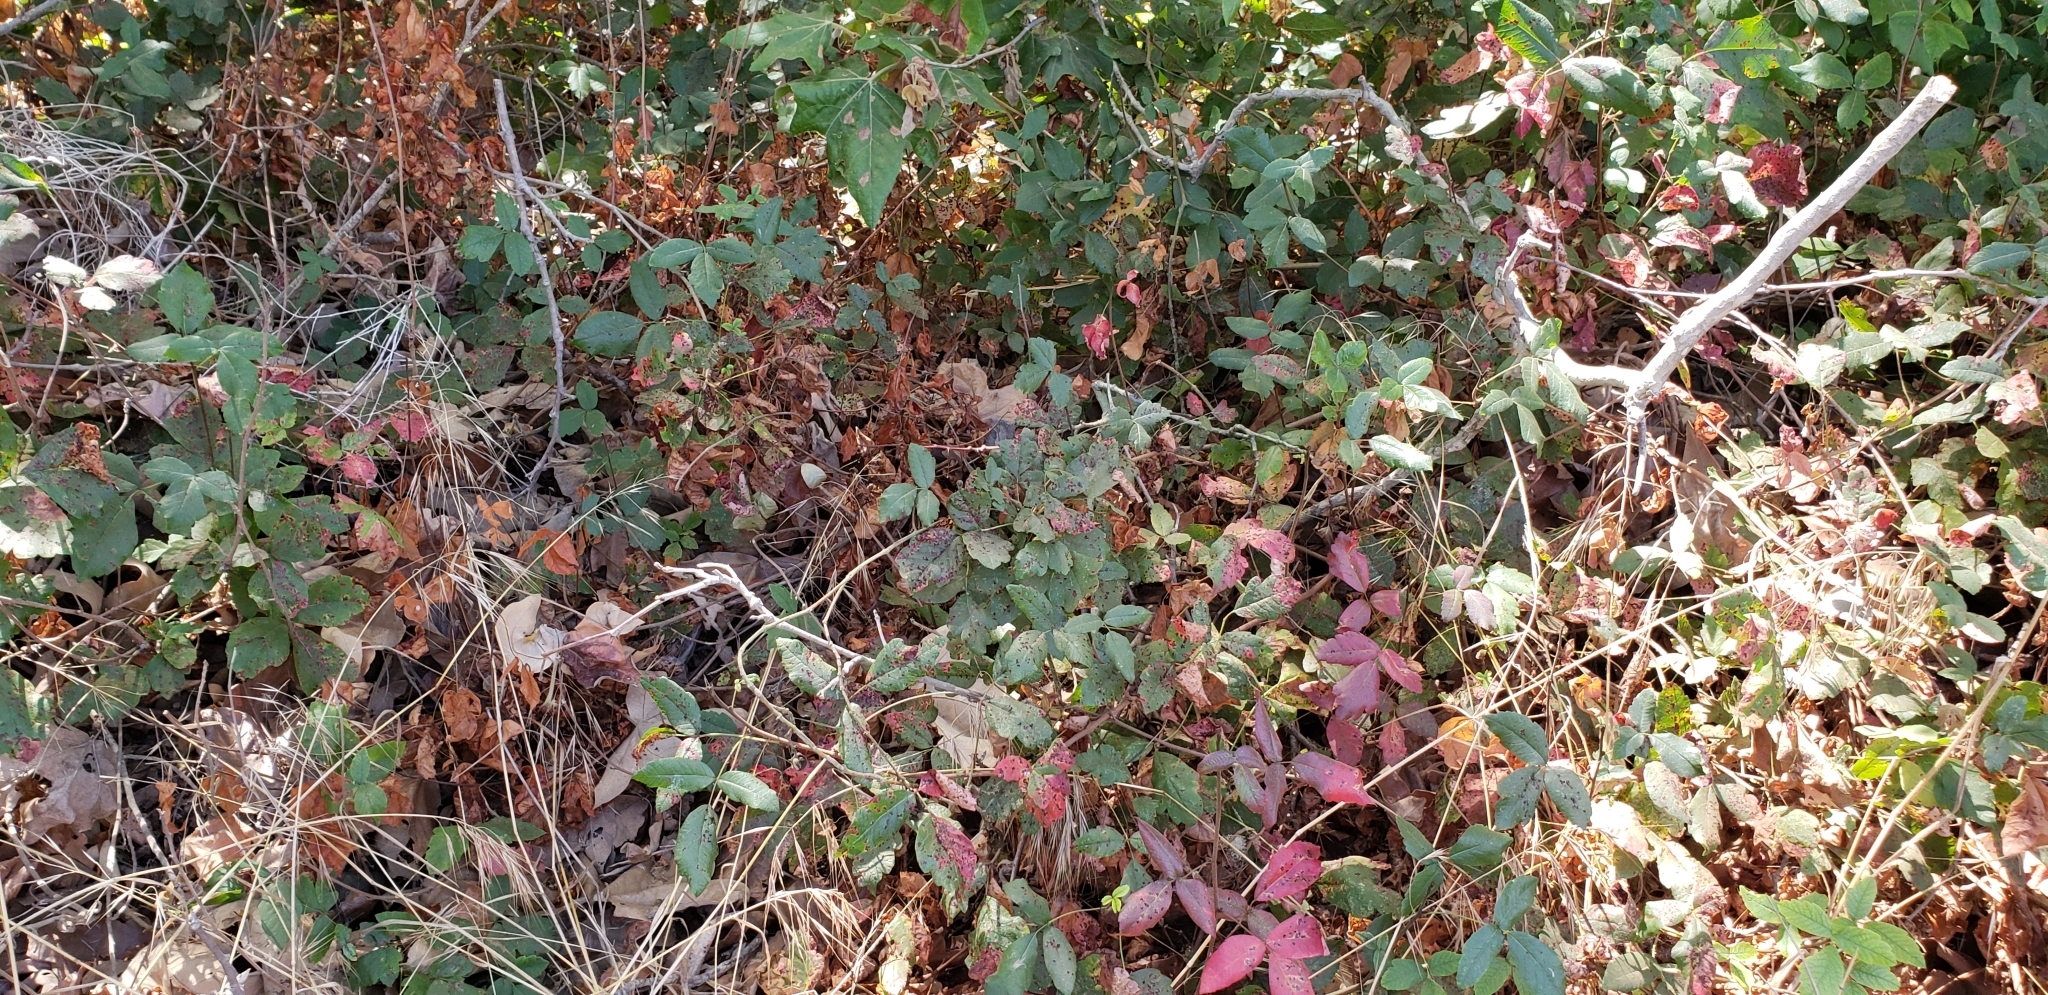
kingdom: Plantae
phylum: Tracheophyta
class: Magnoliopsida
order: Sapindales
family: Anacardiaceae
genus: Toxicodendron
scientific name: Toxicodendron diversilobum
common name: Pacific poison-oak
